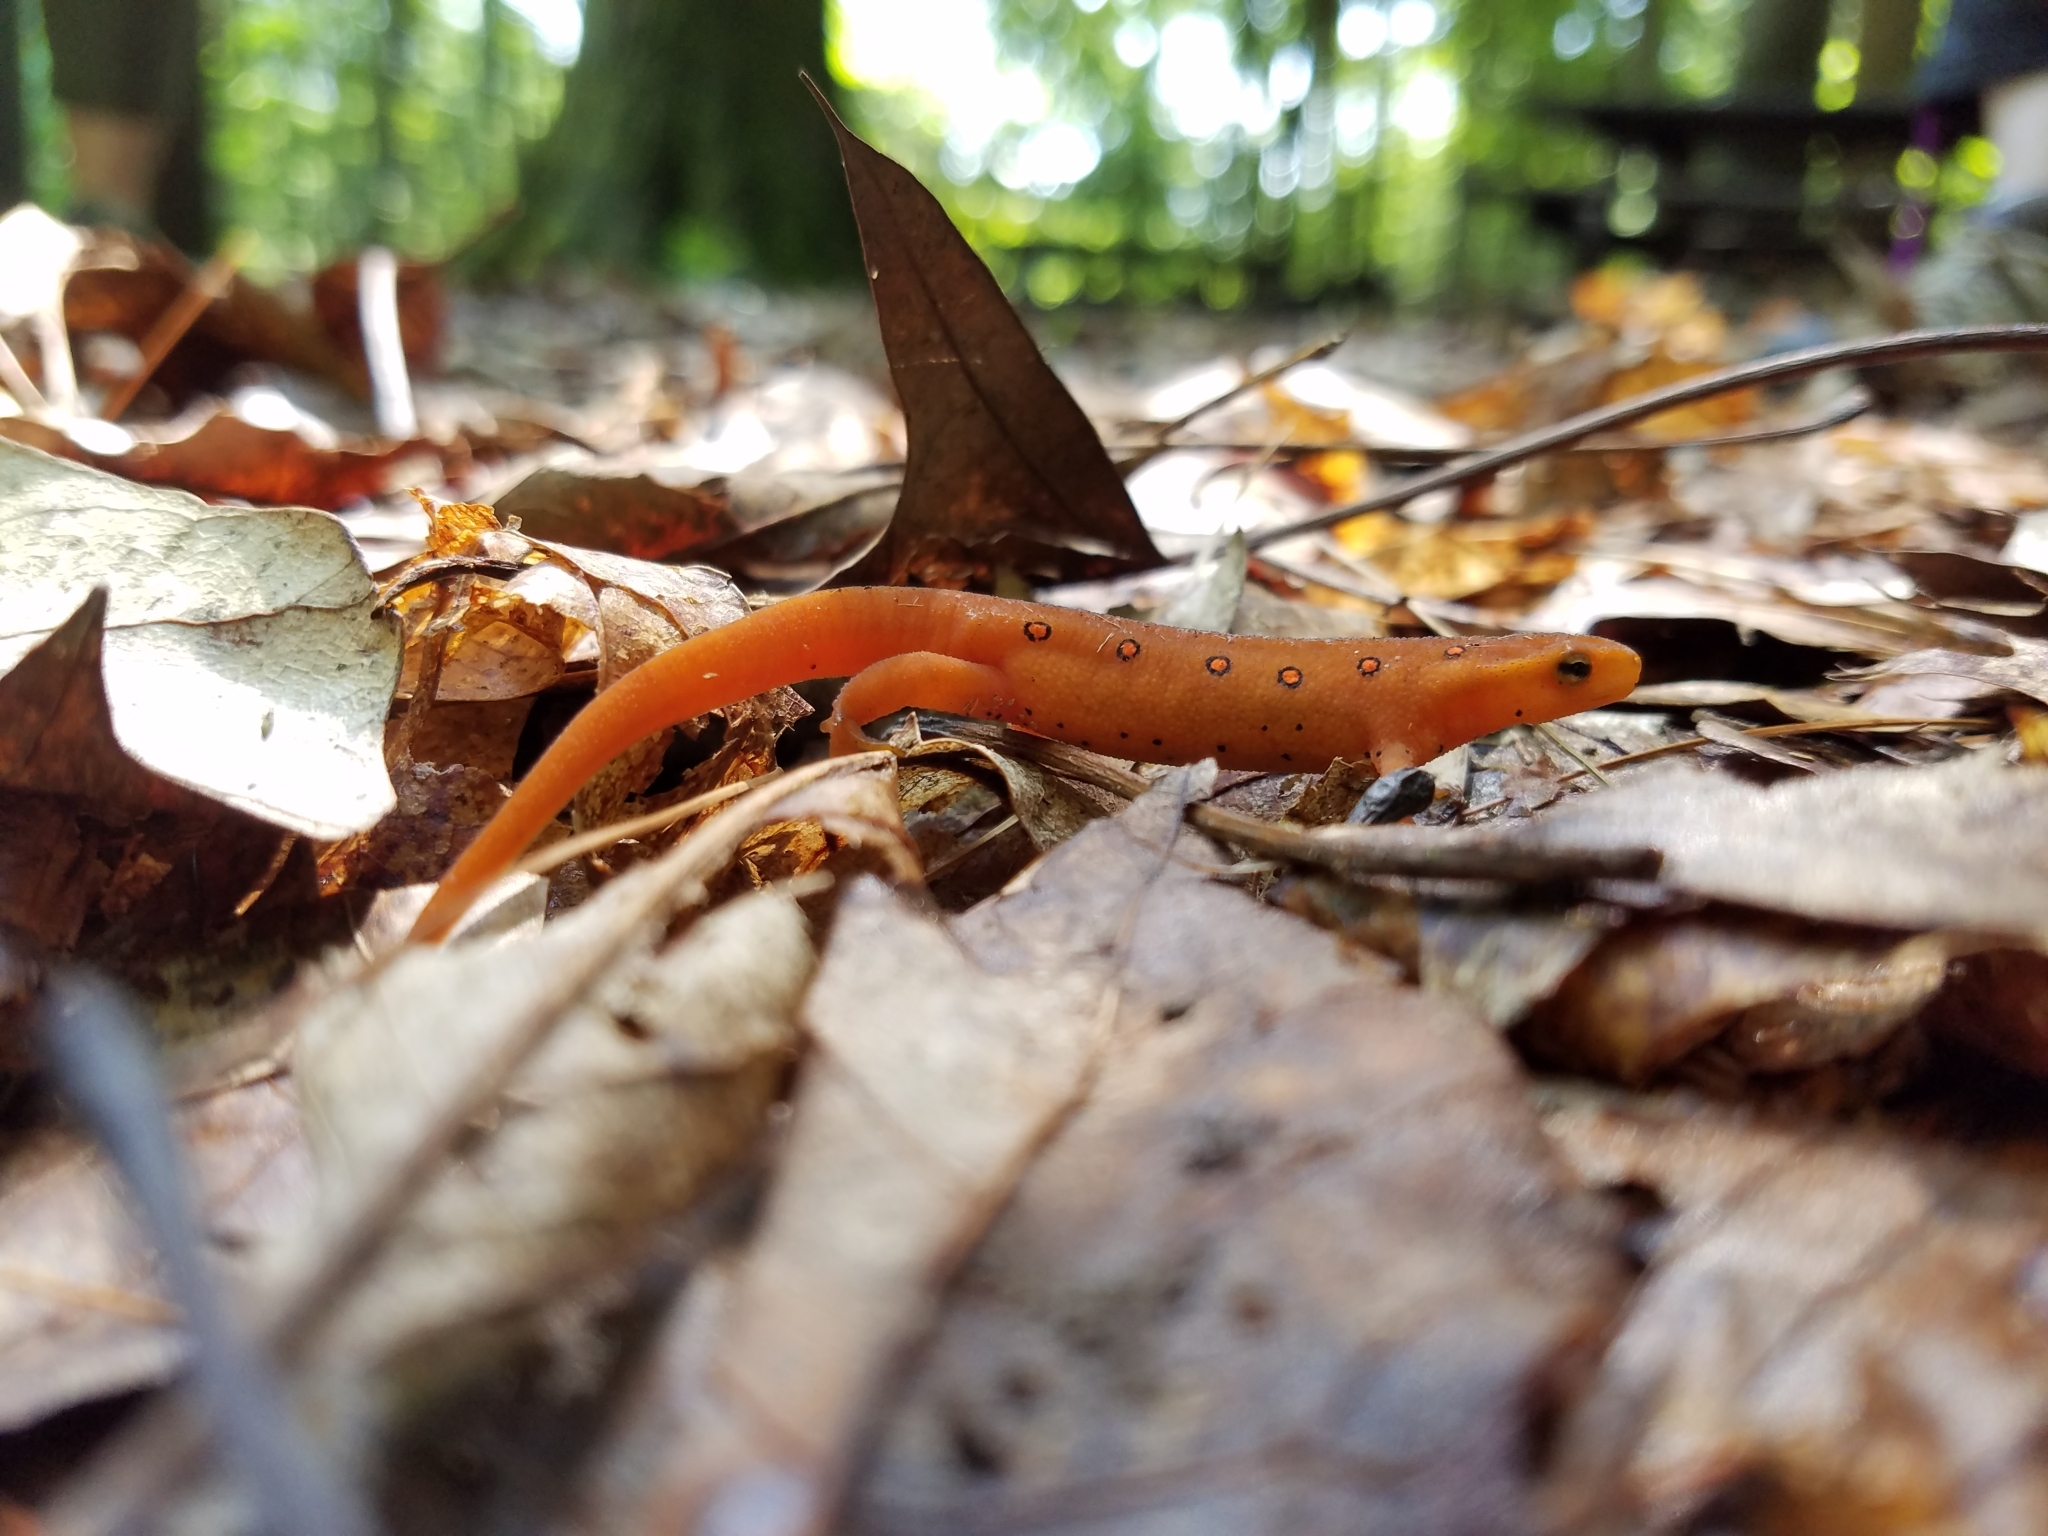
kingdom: Animalia
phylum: Chordata
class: Amphibia
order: Caudata
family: Salamandridae
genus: Notophthalmus
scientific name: Notophthalmus viridescens
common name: Eastern newt
